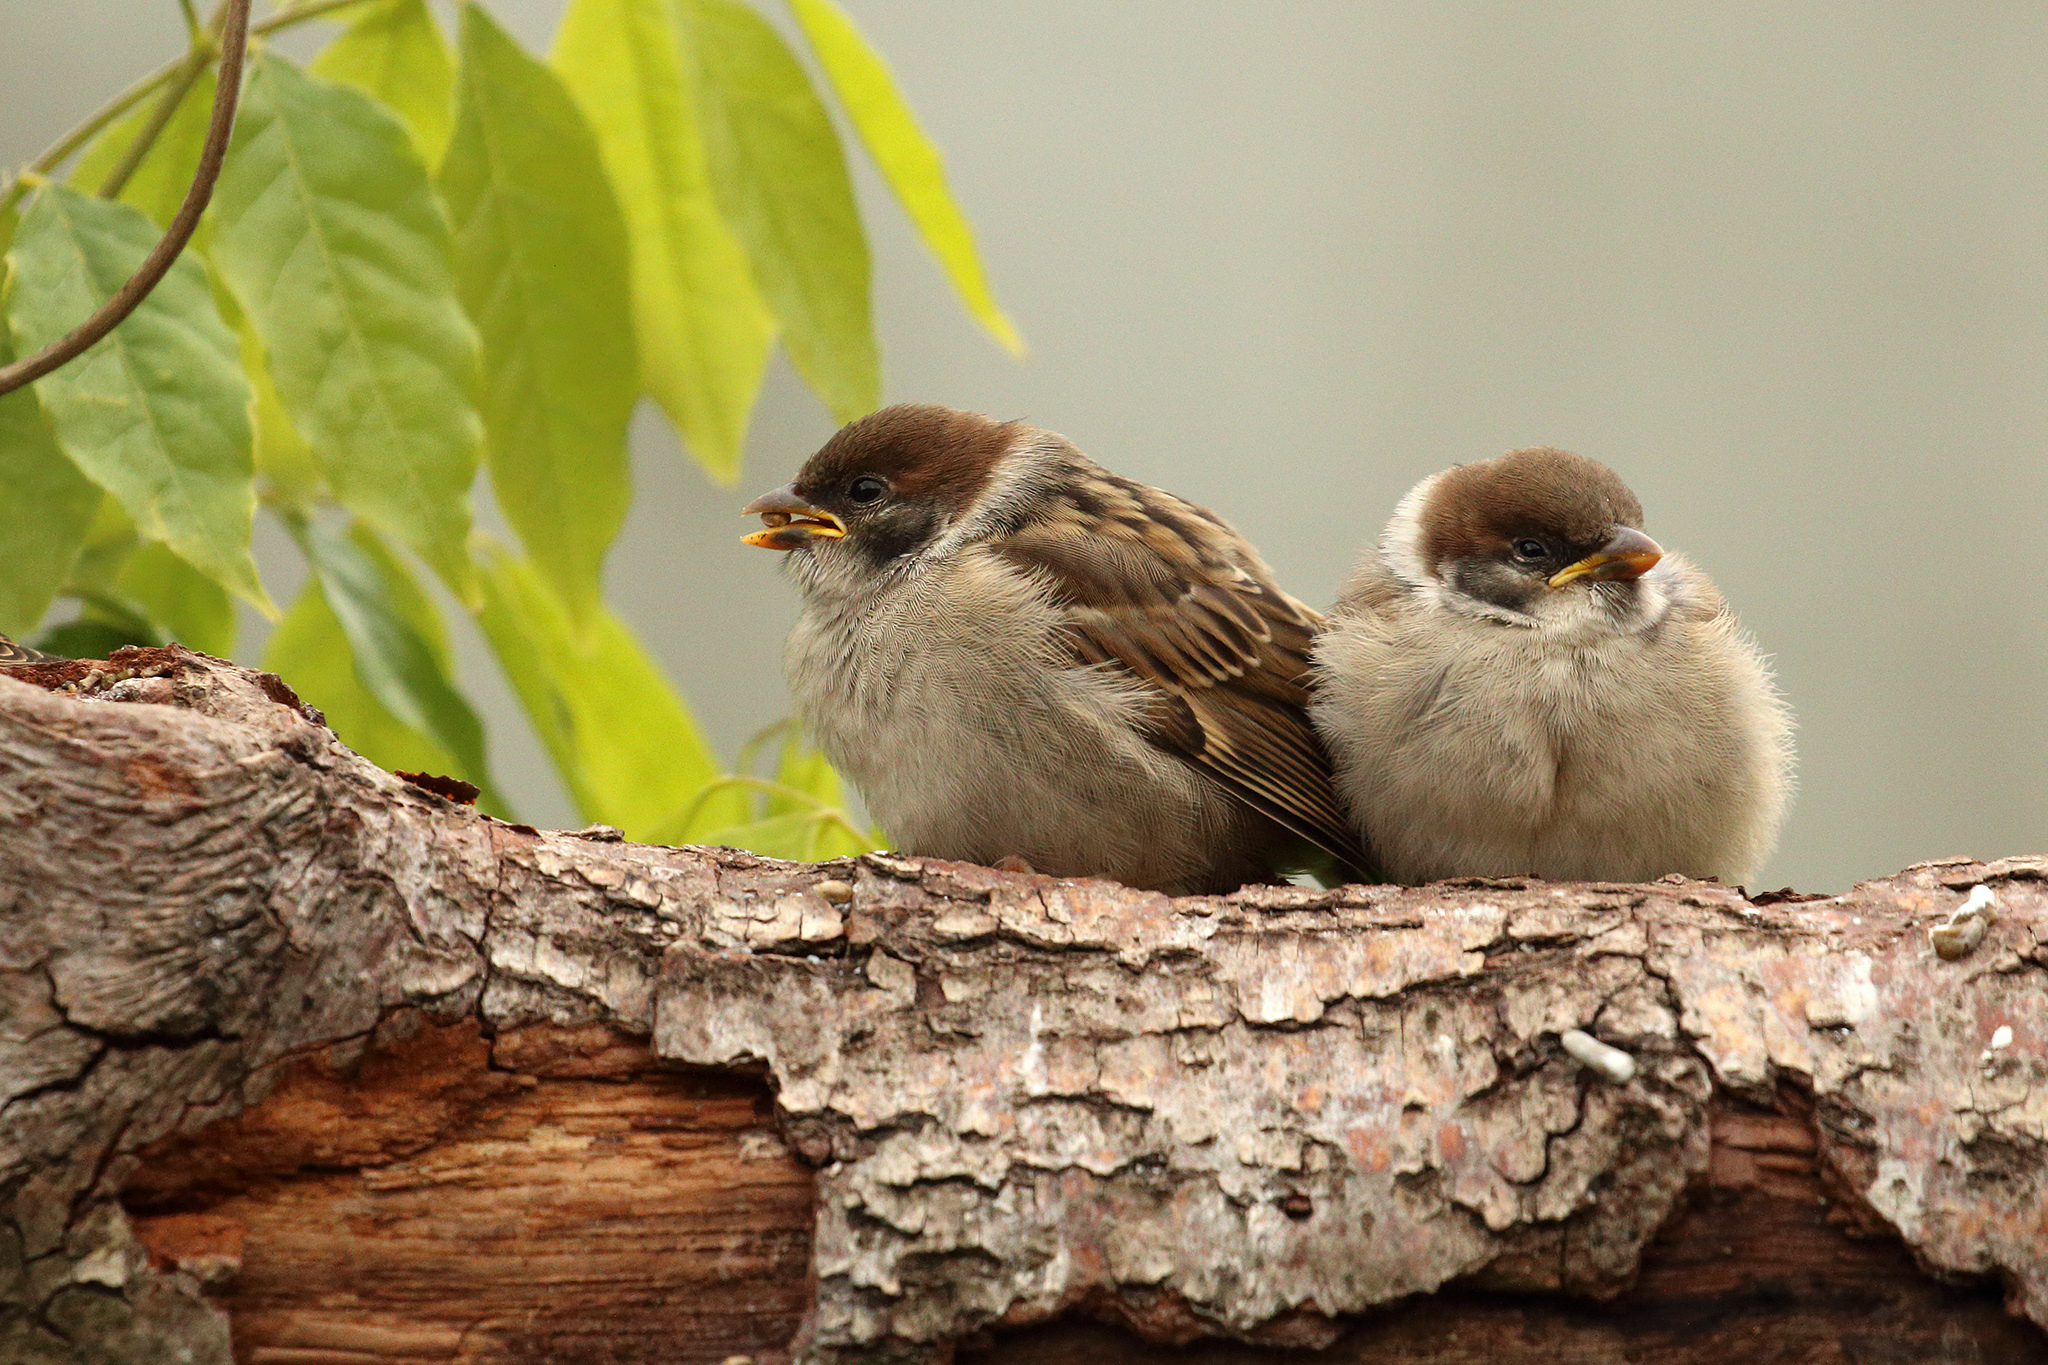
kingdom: Animalia
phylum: Chordata
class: Aves
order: Passeriformes
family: Passeridae
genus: Passer
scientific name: Passer montanus
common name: Eurasian tree sparrow
